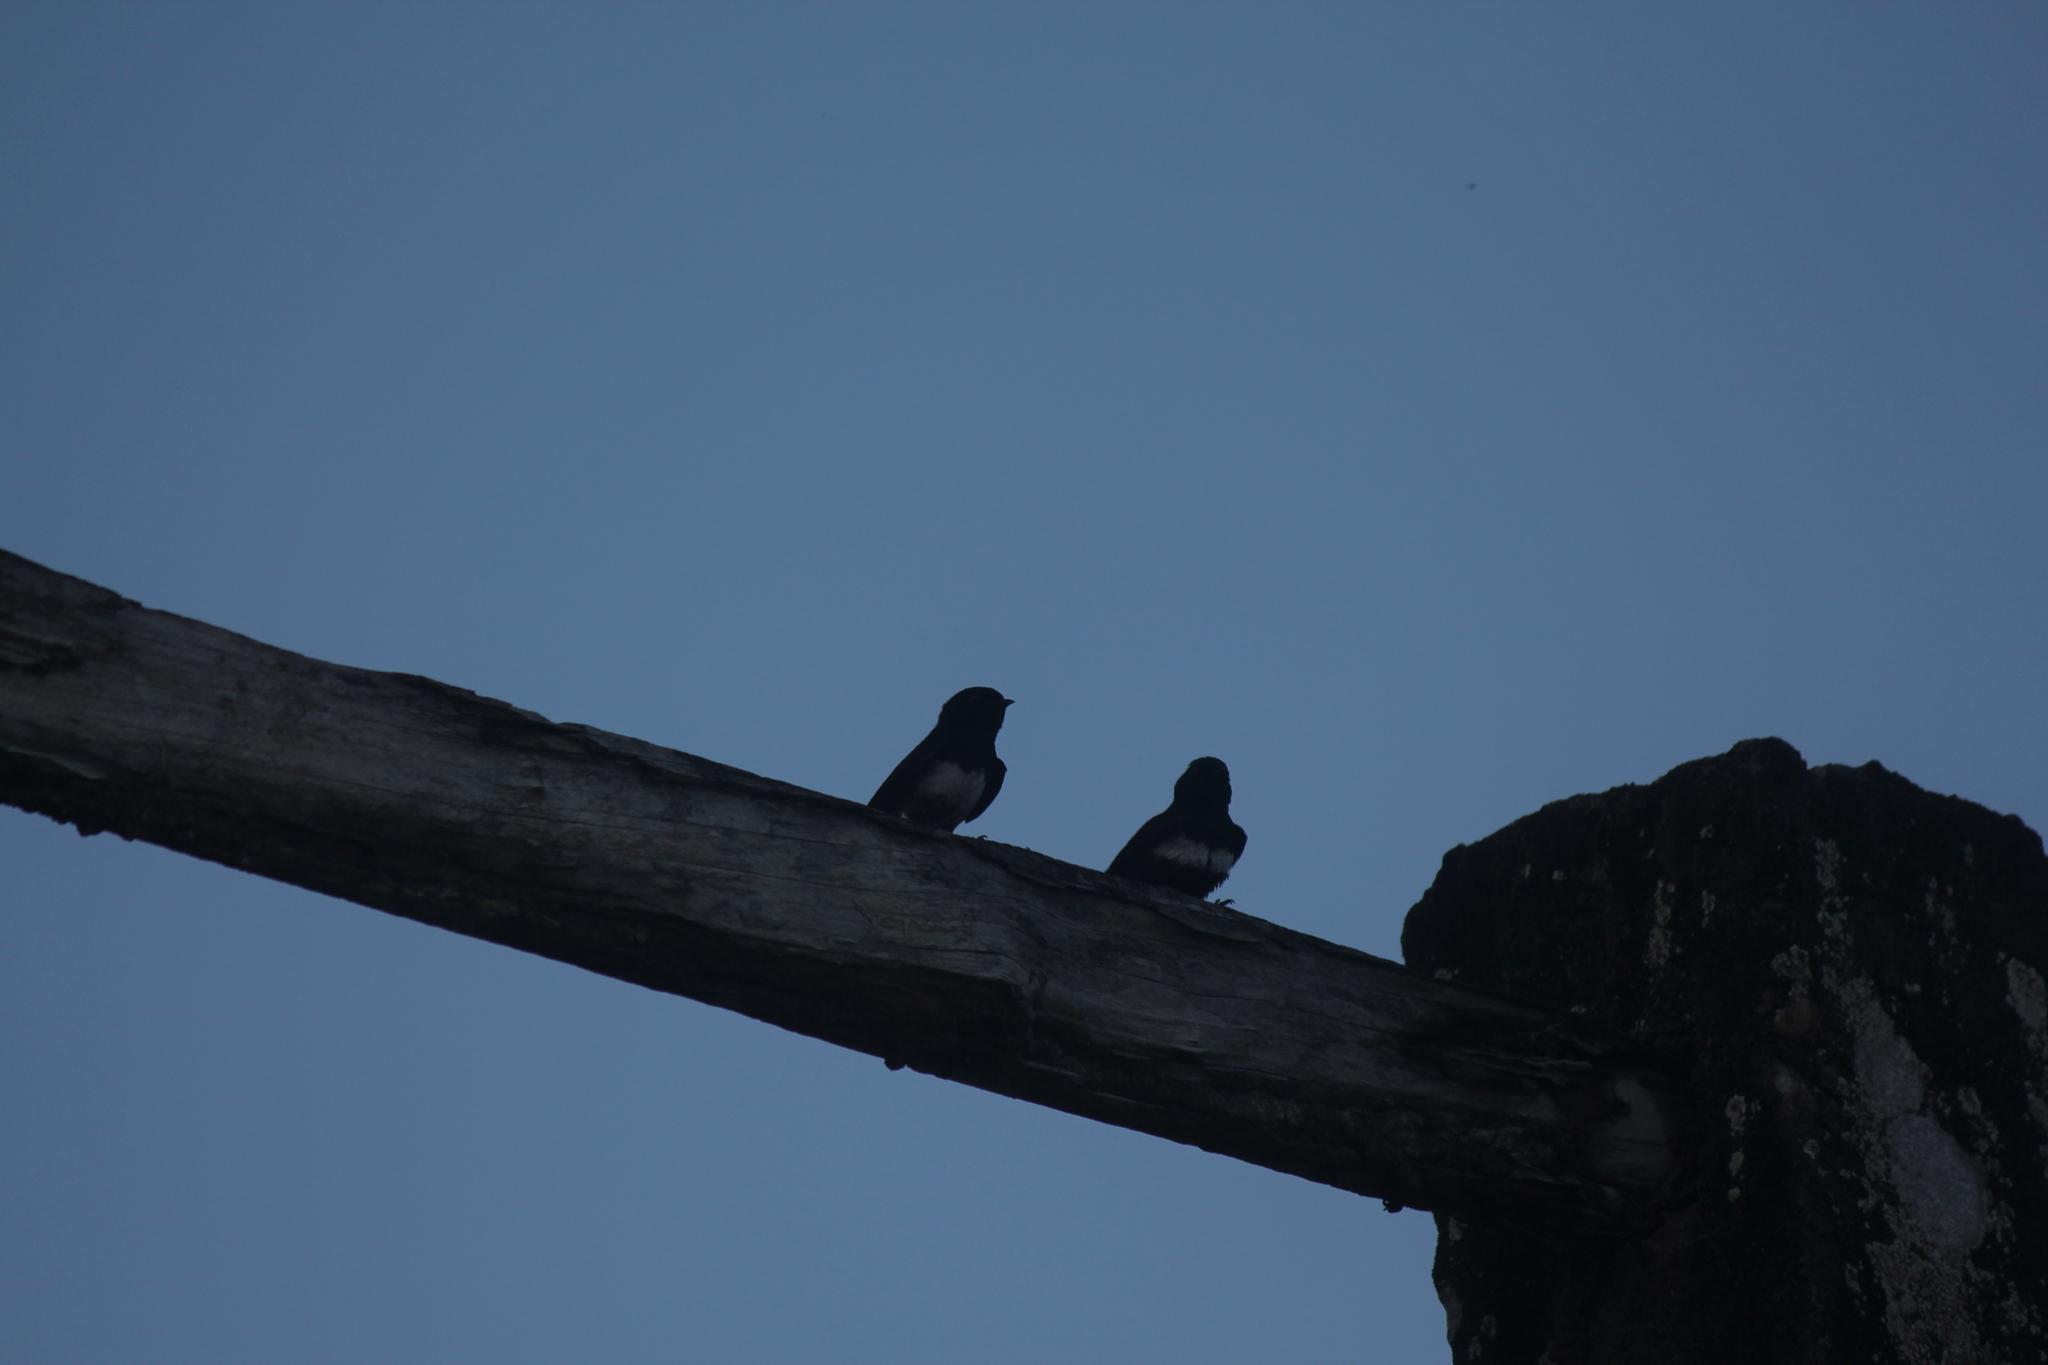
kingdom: Animalia
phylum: Chordata
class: Aves
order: Passeriformes
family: Hirundinidae
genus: Atticora
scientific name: Atticora fasciata
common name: White-banded swallow
